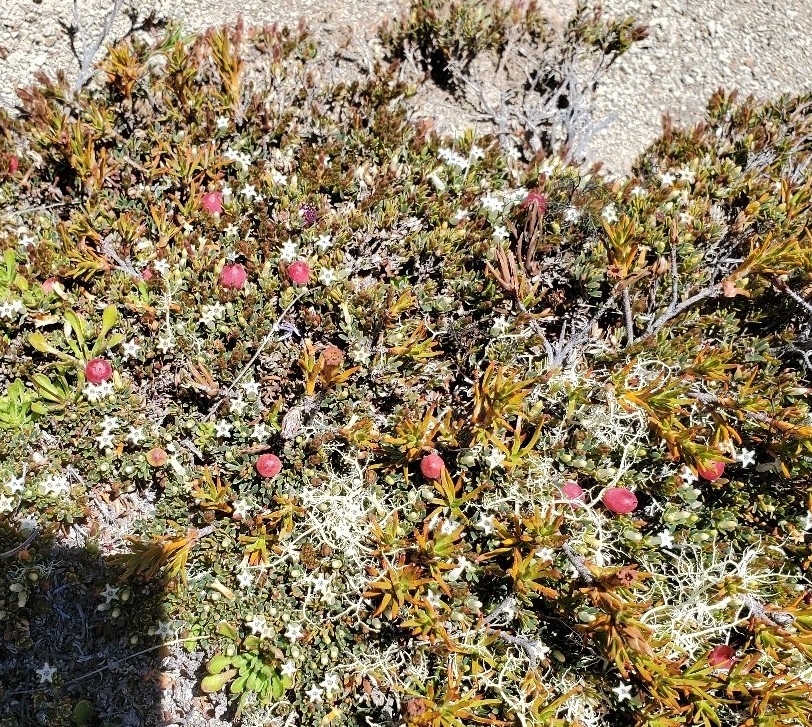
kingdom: Plantae
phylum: Tracheophyta
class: Magnoliopsida
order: Ericales
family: Ericaceae
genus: Pentachondra
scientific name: Pentachondra pumila
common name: Carpet-heath
